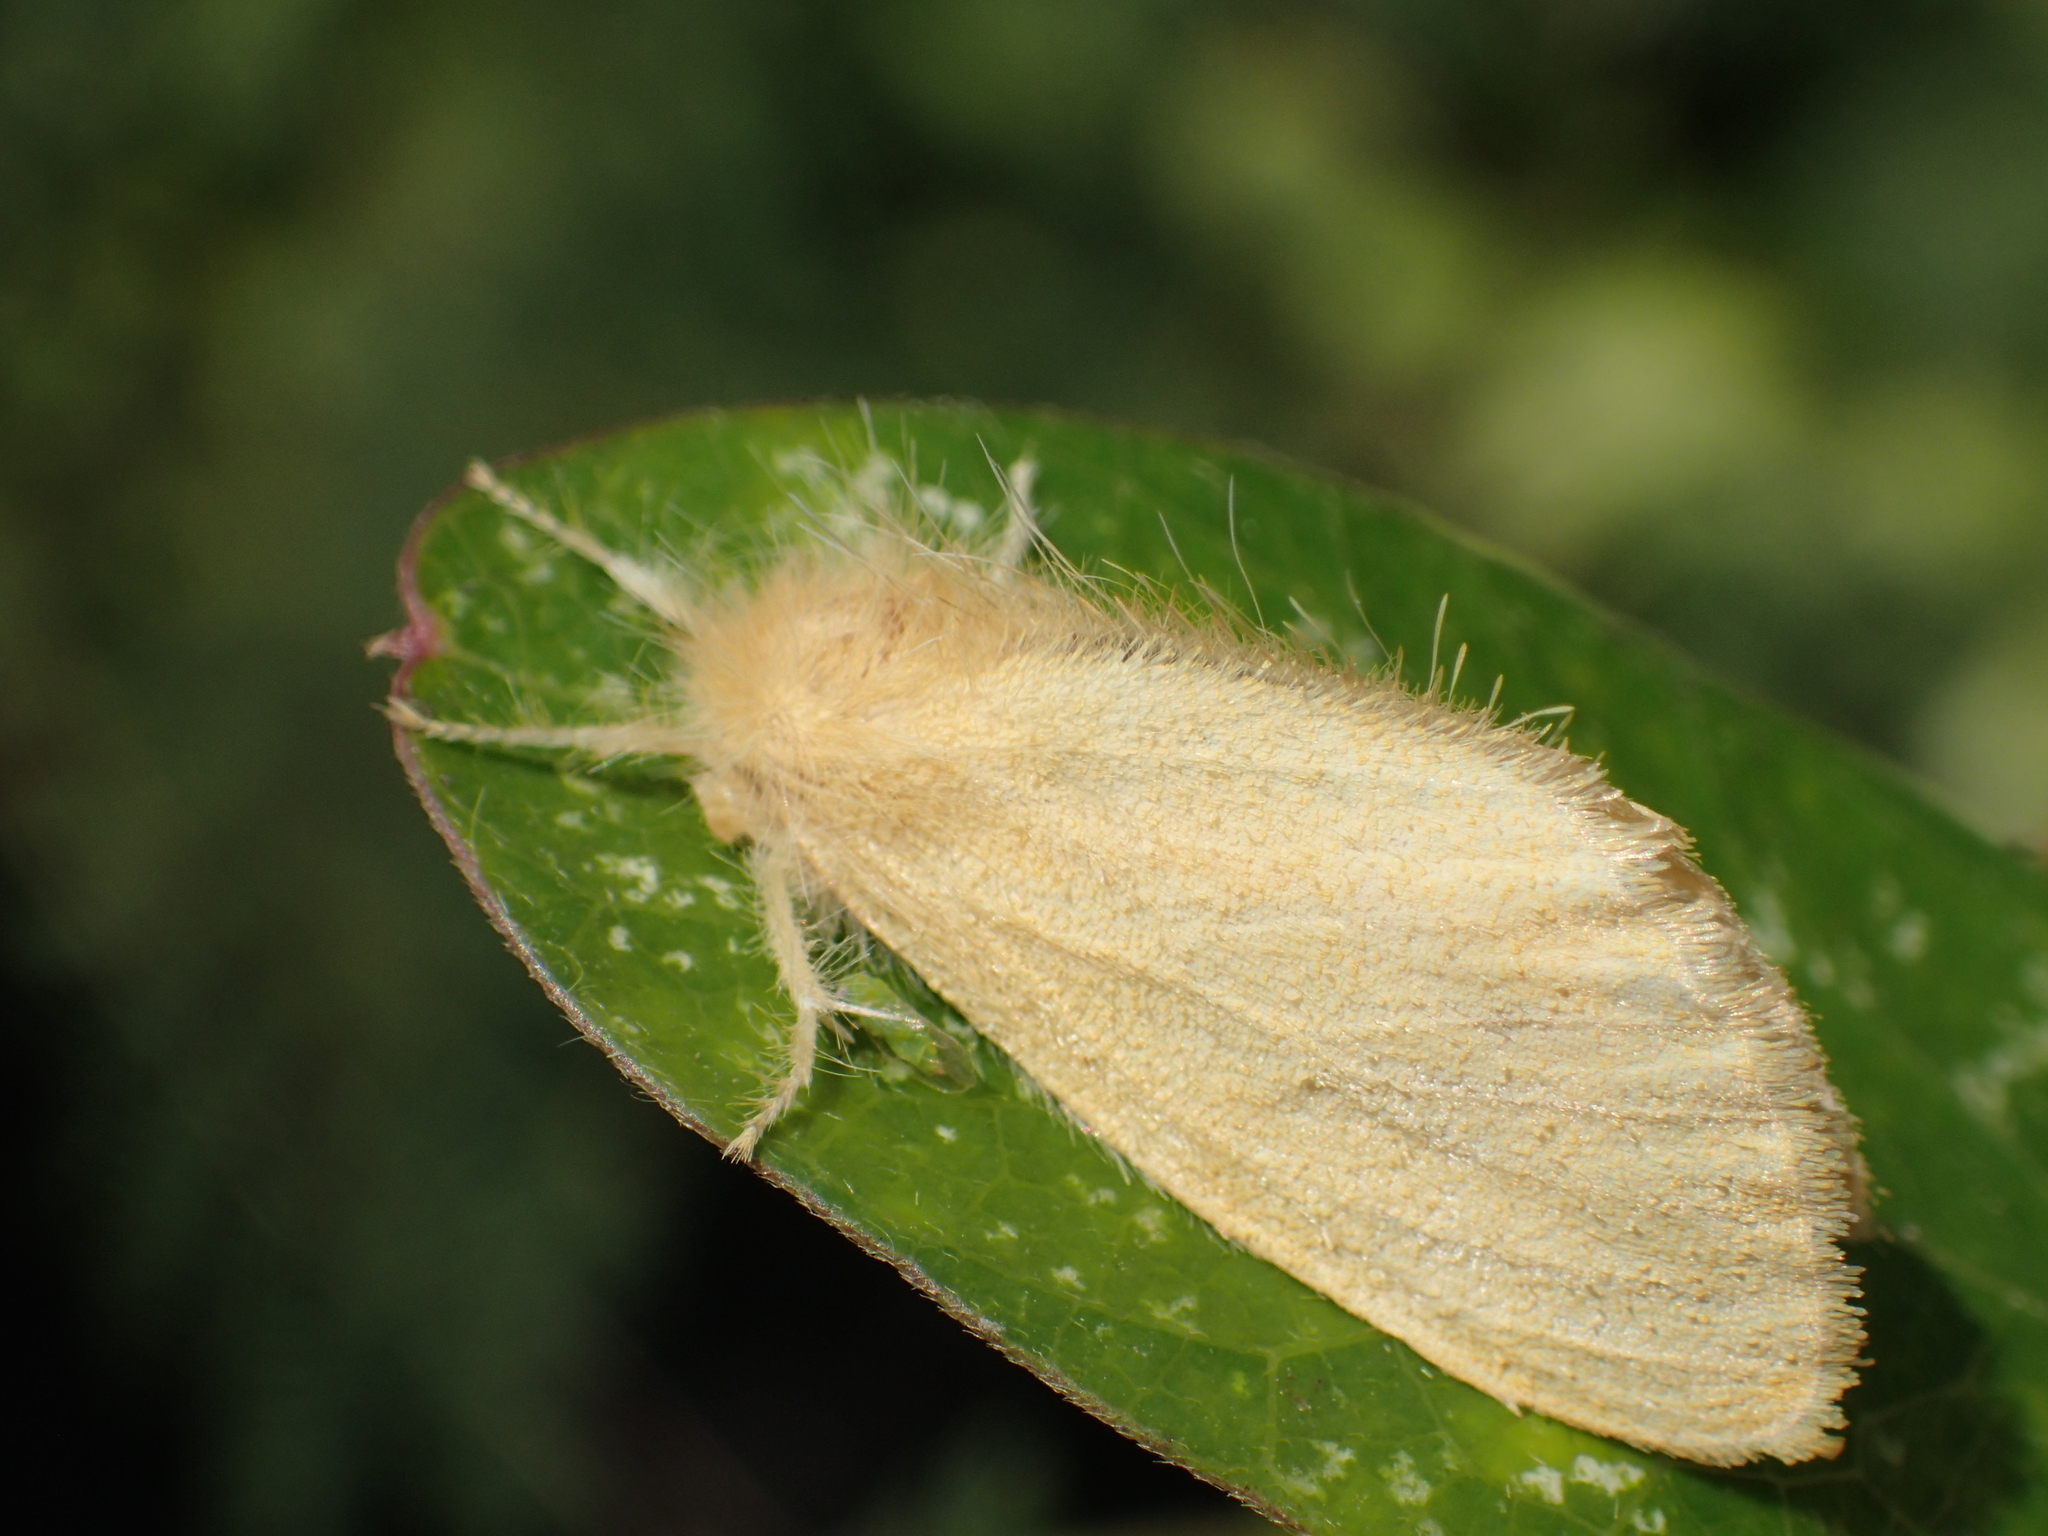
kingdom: Animalia
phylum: Arthropoda
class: Insecta
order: Lepidoptera
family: Erebidae
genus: Euproctis
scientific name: Euproctis taiwana
